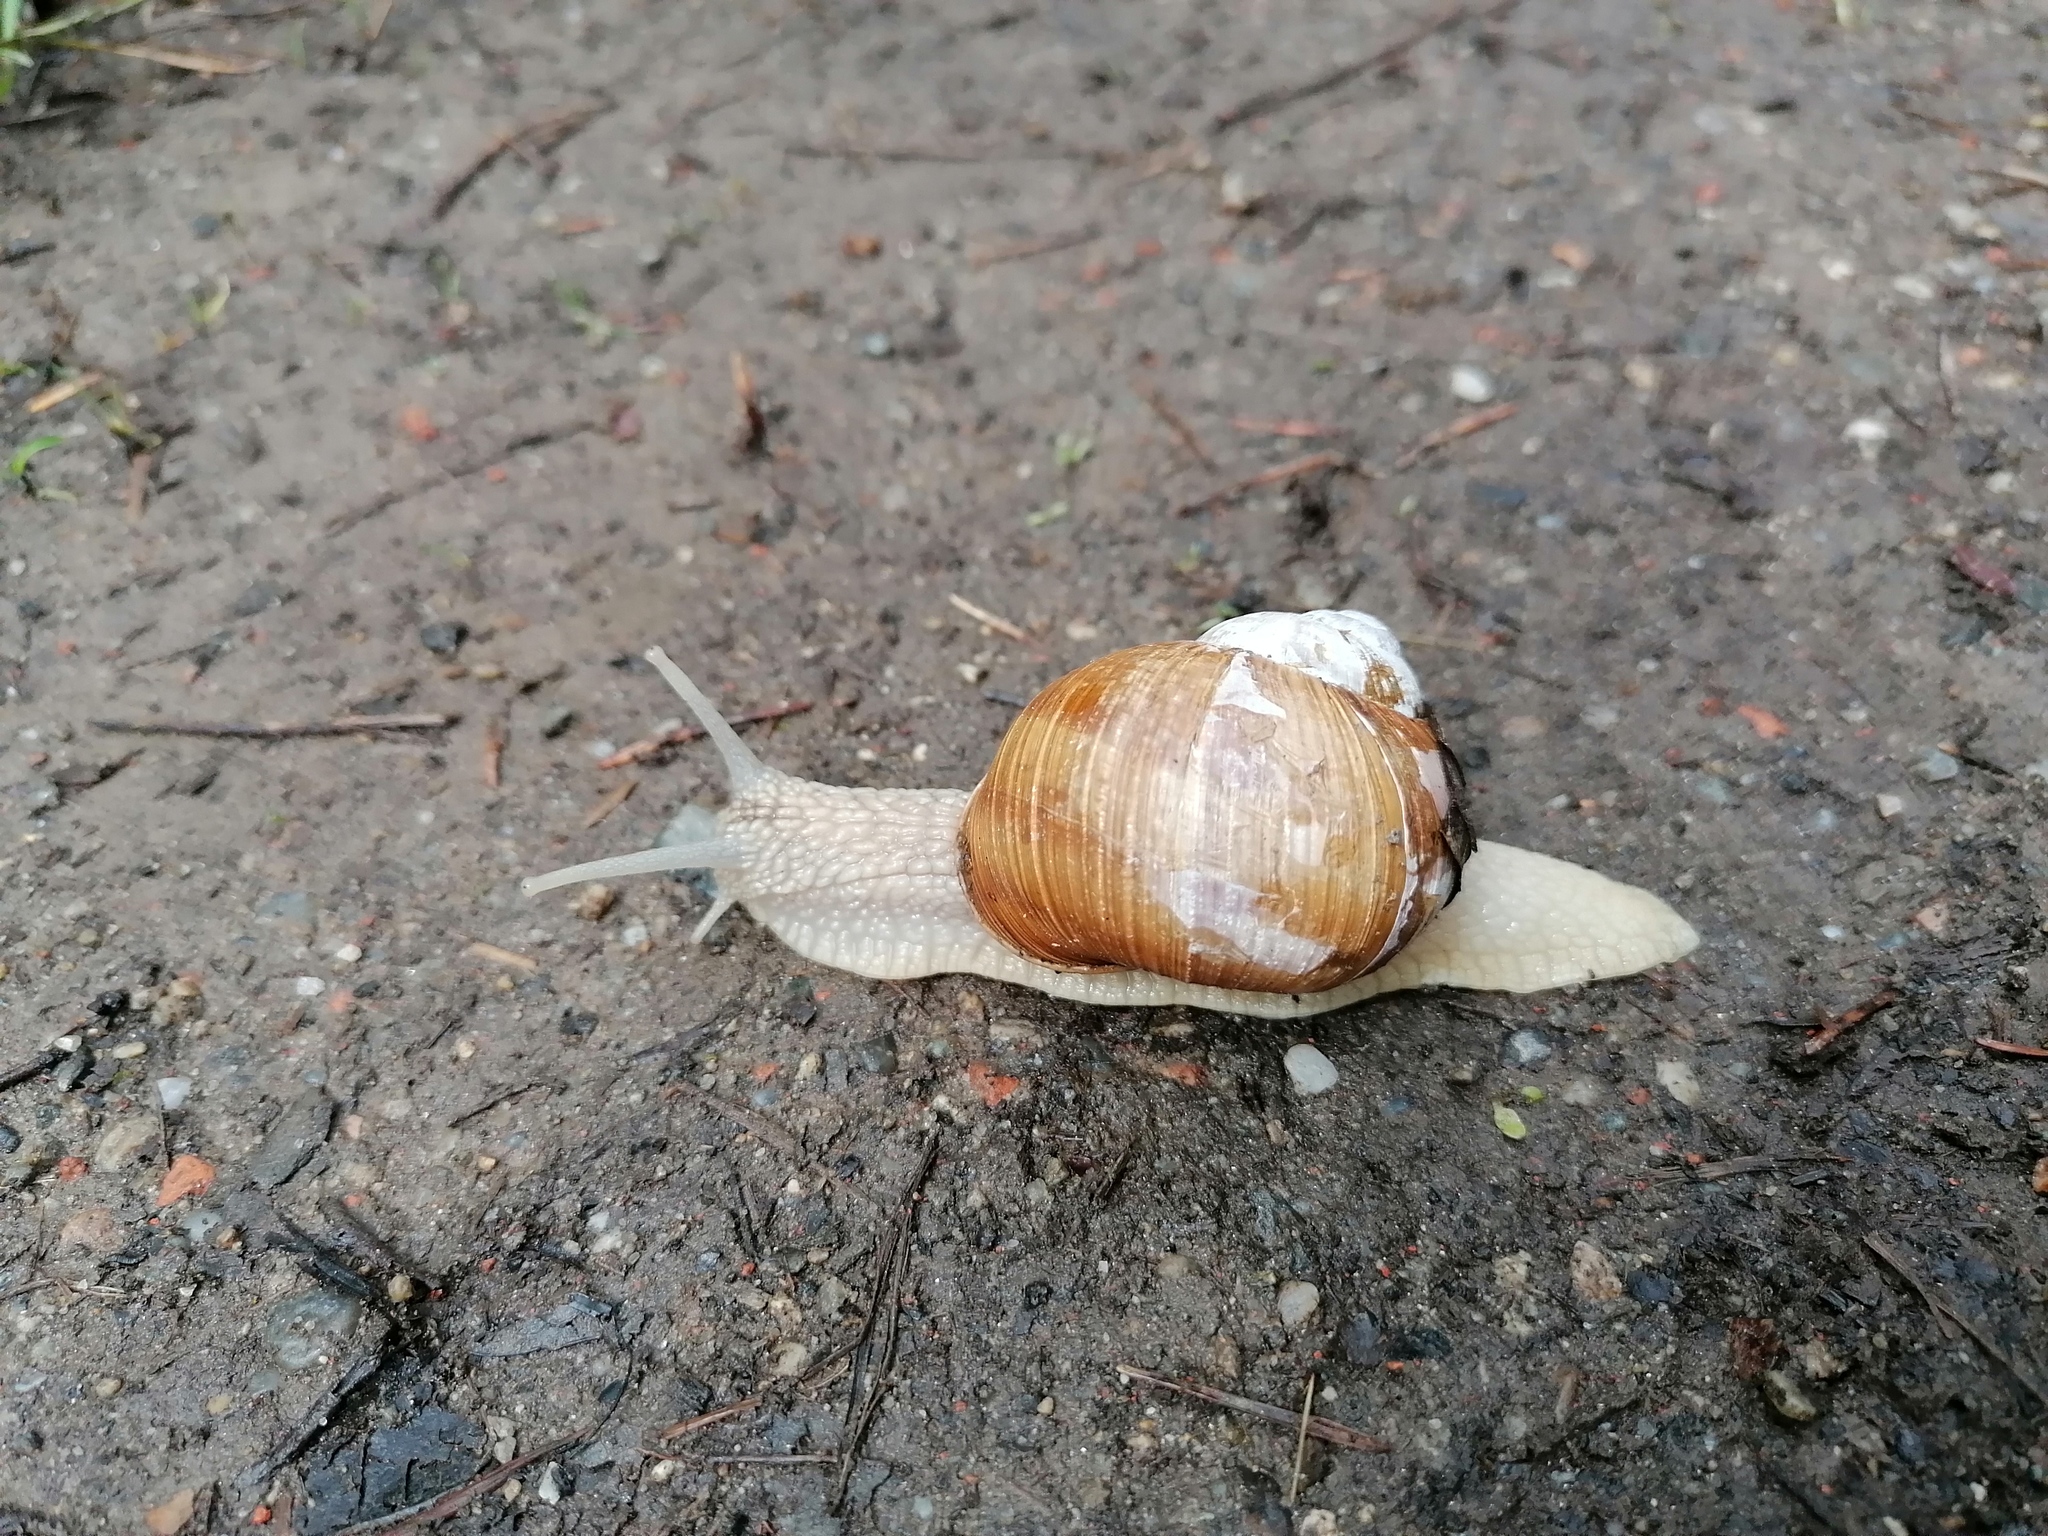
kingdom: Animalia
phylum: Mollusca
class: Gastropoda
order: Stylommatophora
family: Helicidae
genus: Helix
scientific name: Helix pomatia
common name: Roman snail
